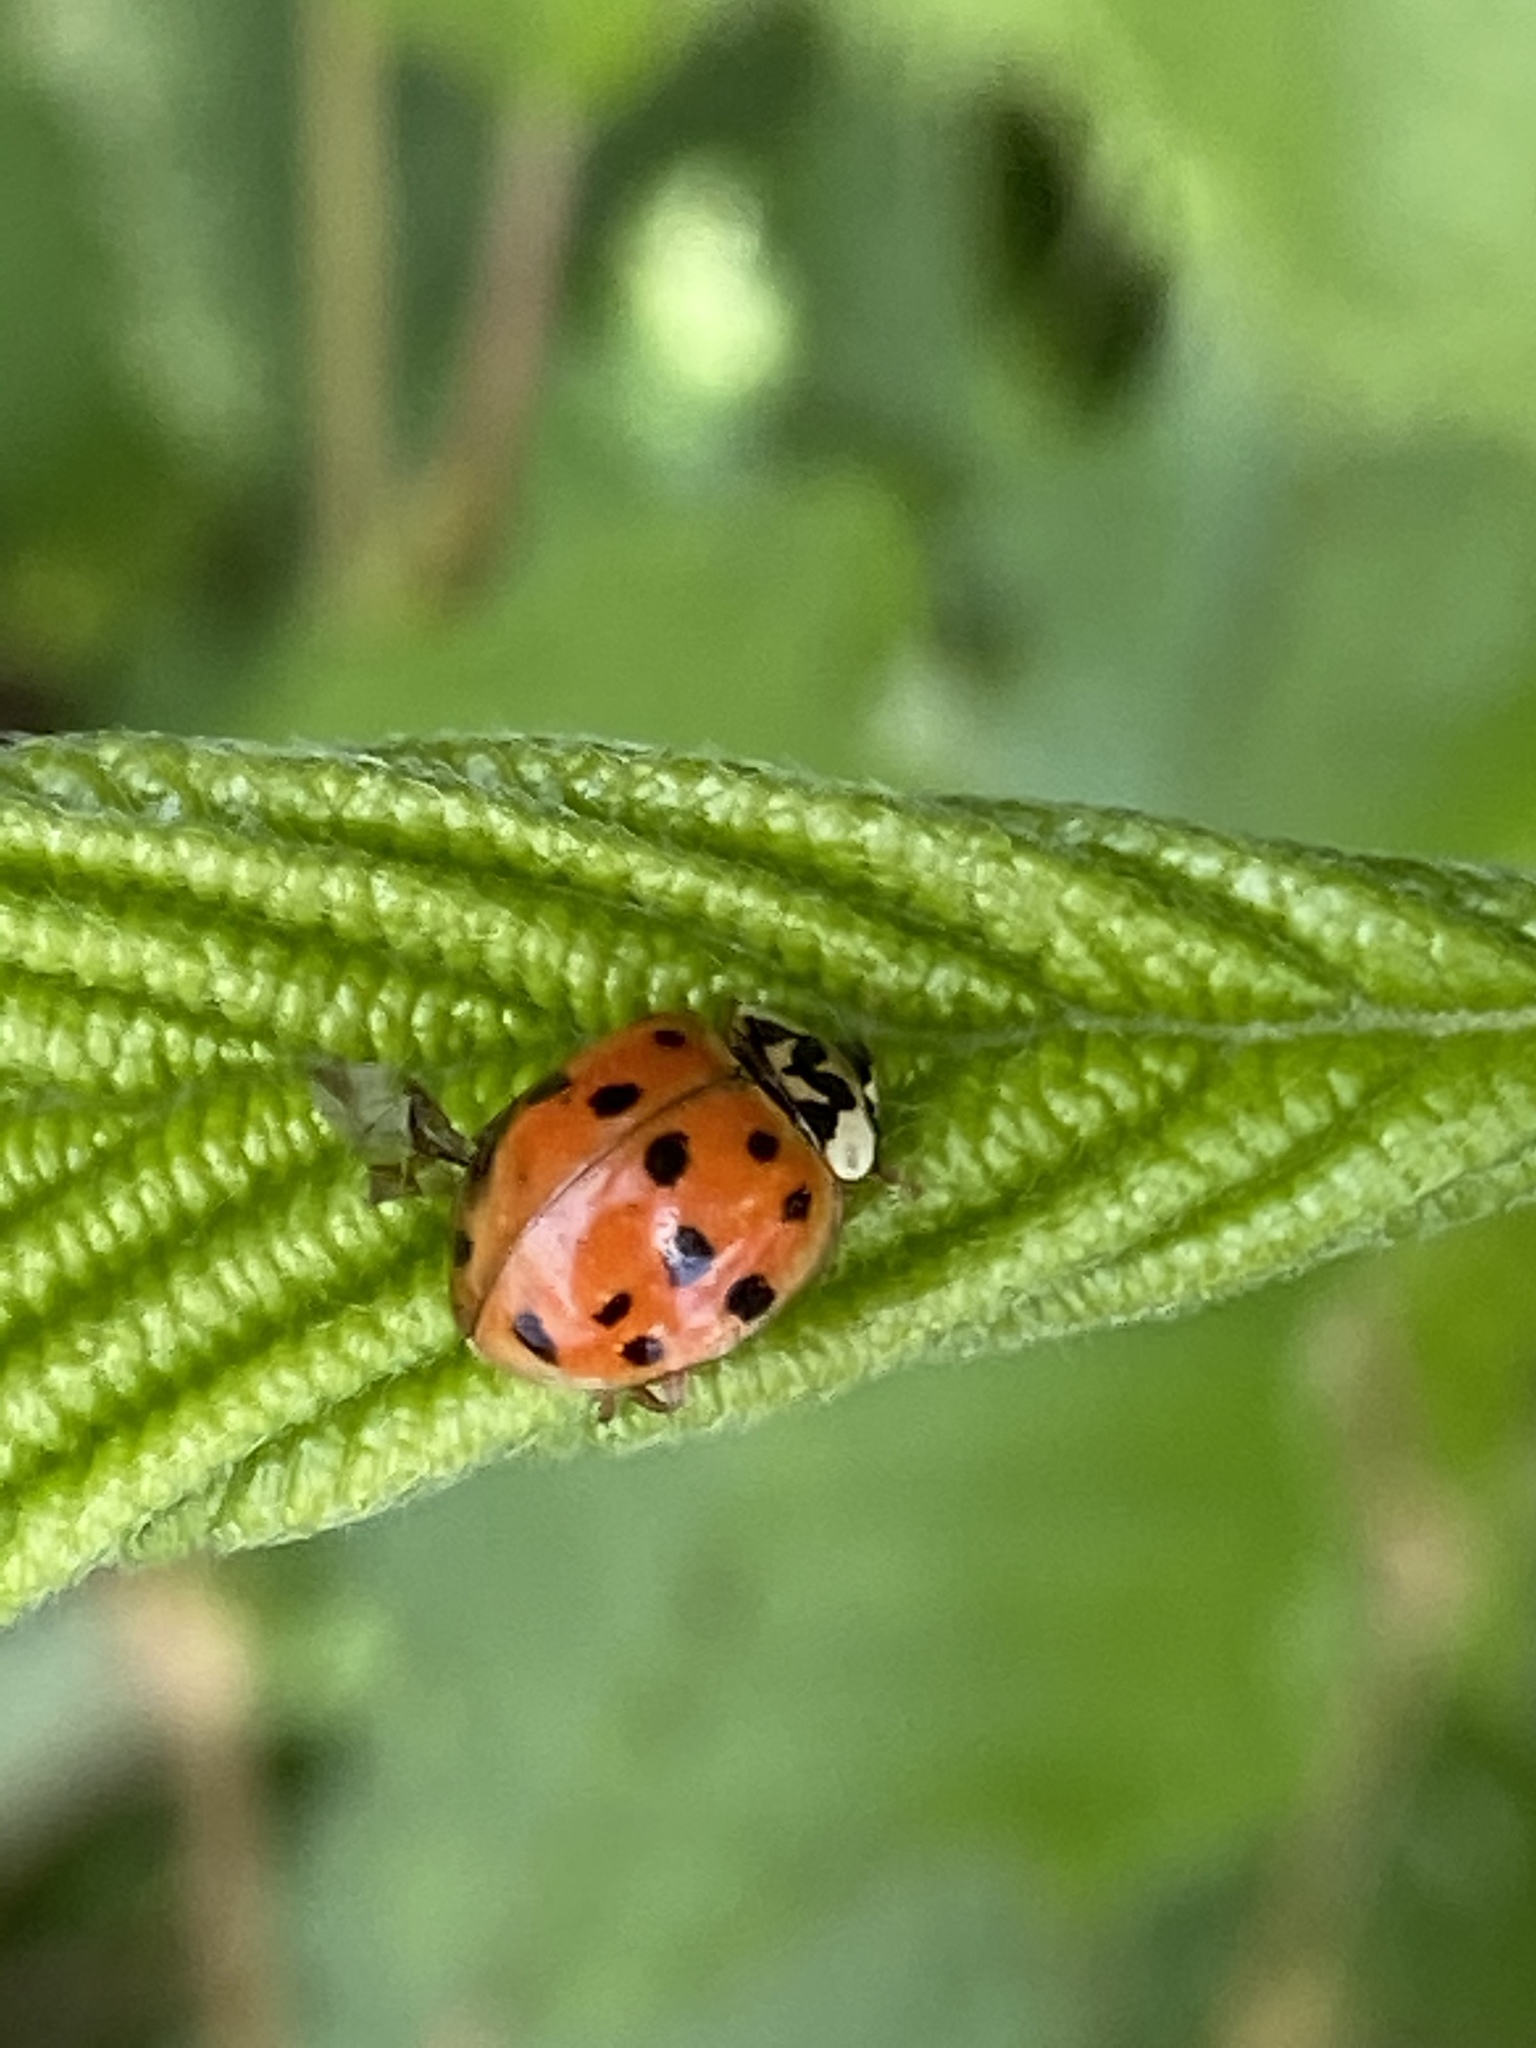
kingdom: Animalia
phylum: Arthropoda
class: Insecta
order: Coleoptera
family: Coccinellidae
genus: Harmonia
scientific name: Harmonia axyridis
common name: Harlequin ladybird
